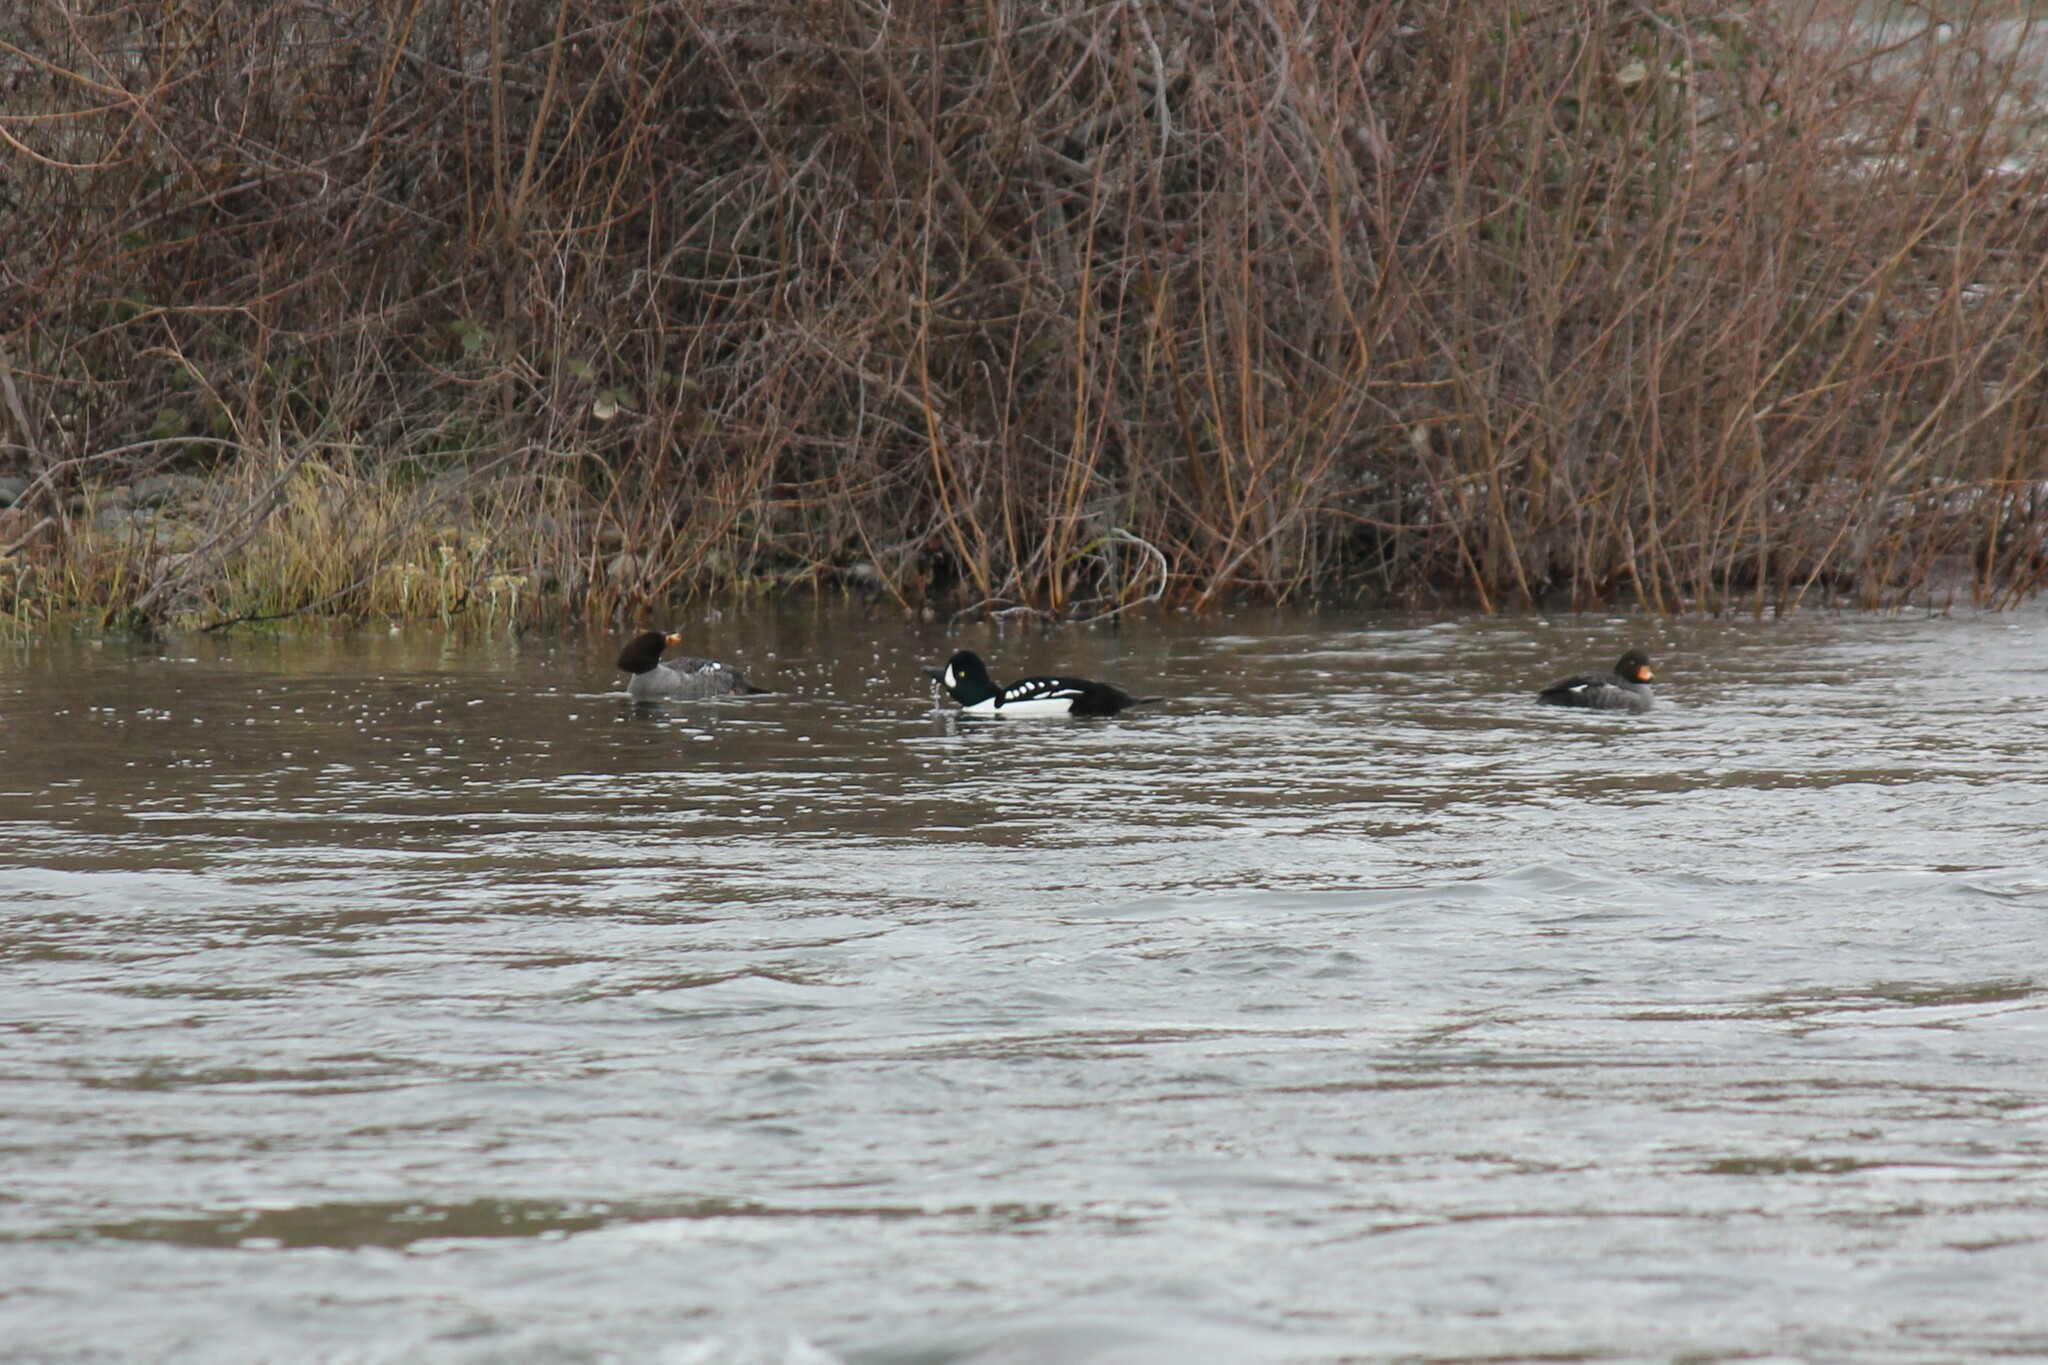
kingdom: Animalia
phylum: Chordata
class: Aves
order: Anseriformes
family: Anatidae
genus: Bucephala
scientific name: Bucephala islandica
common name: Barrow's goldeneye
